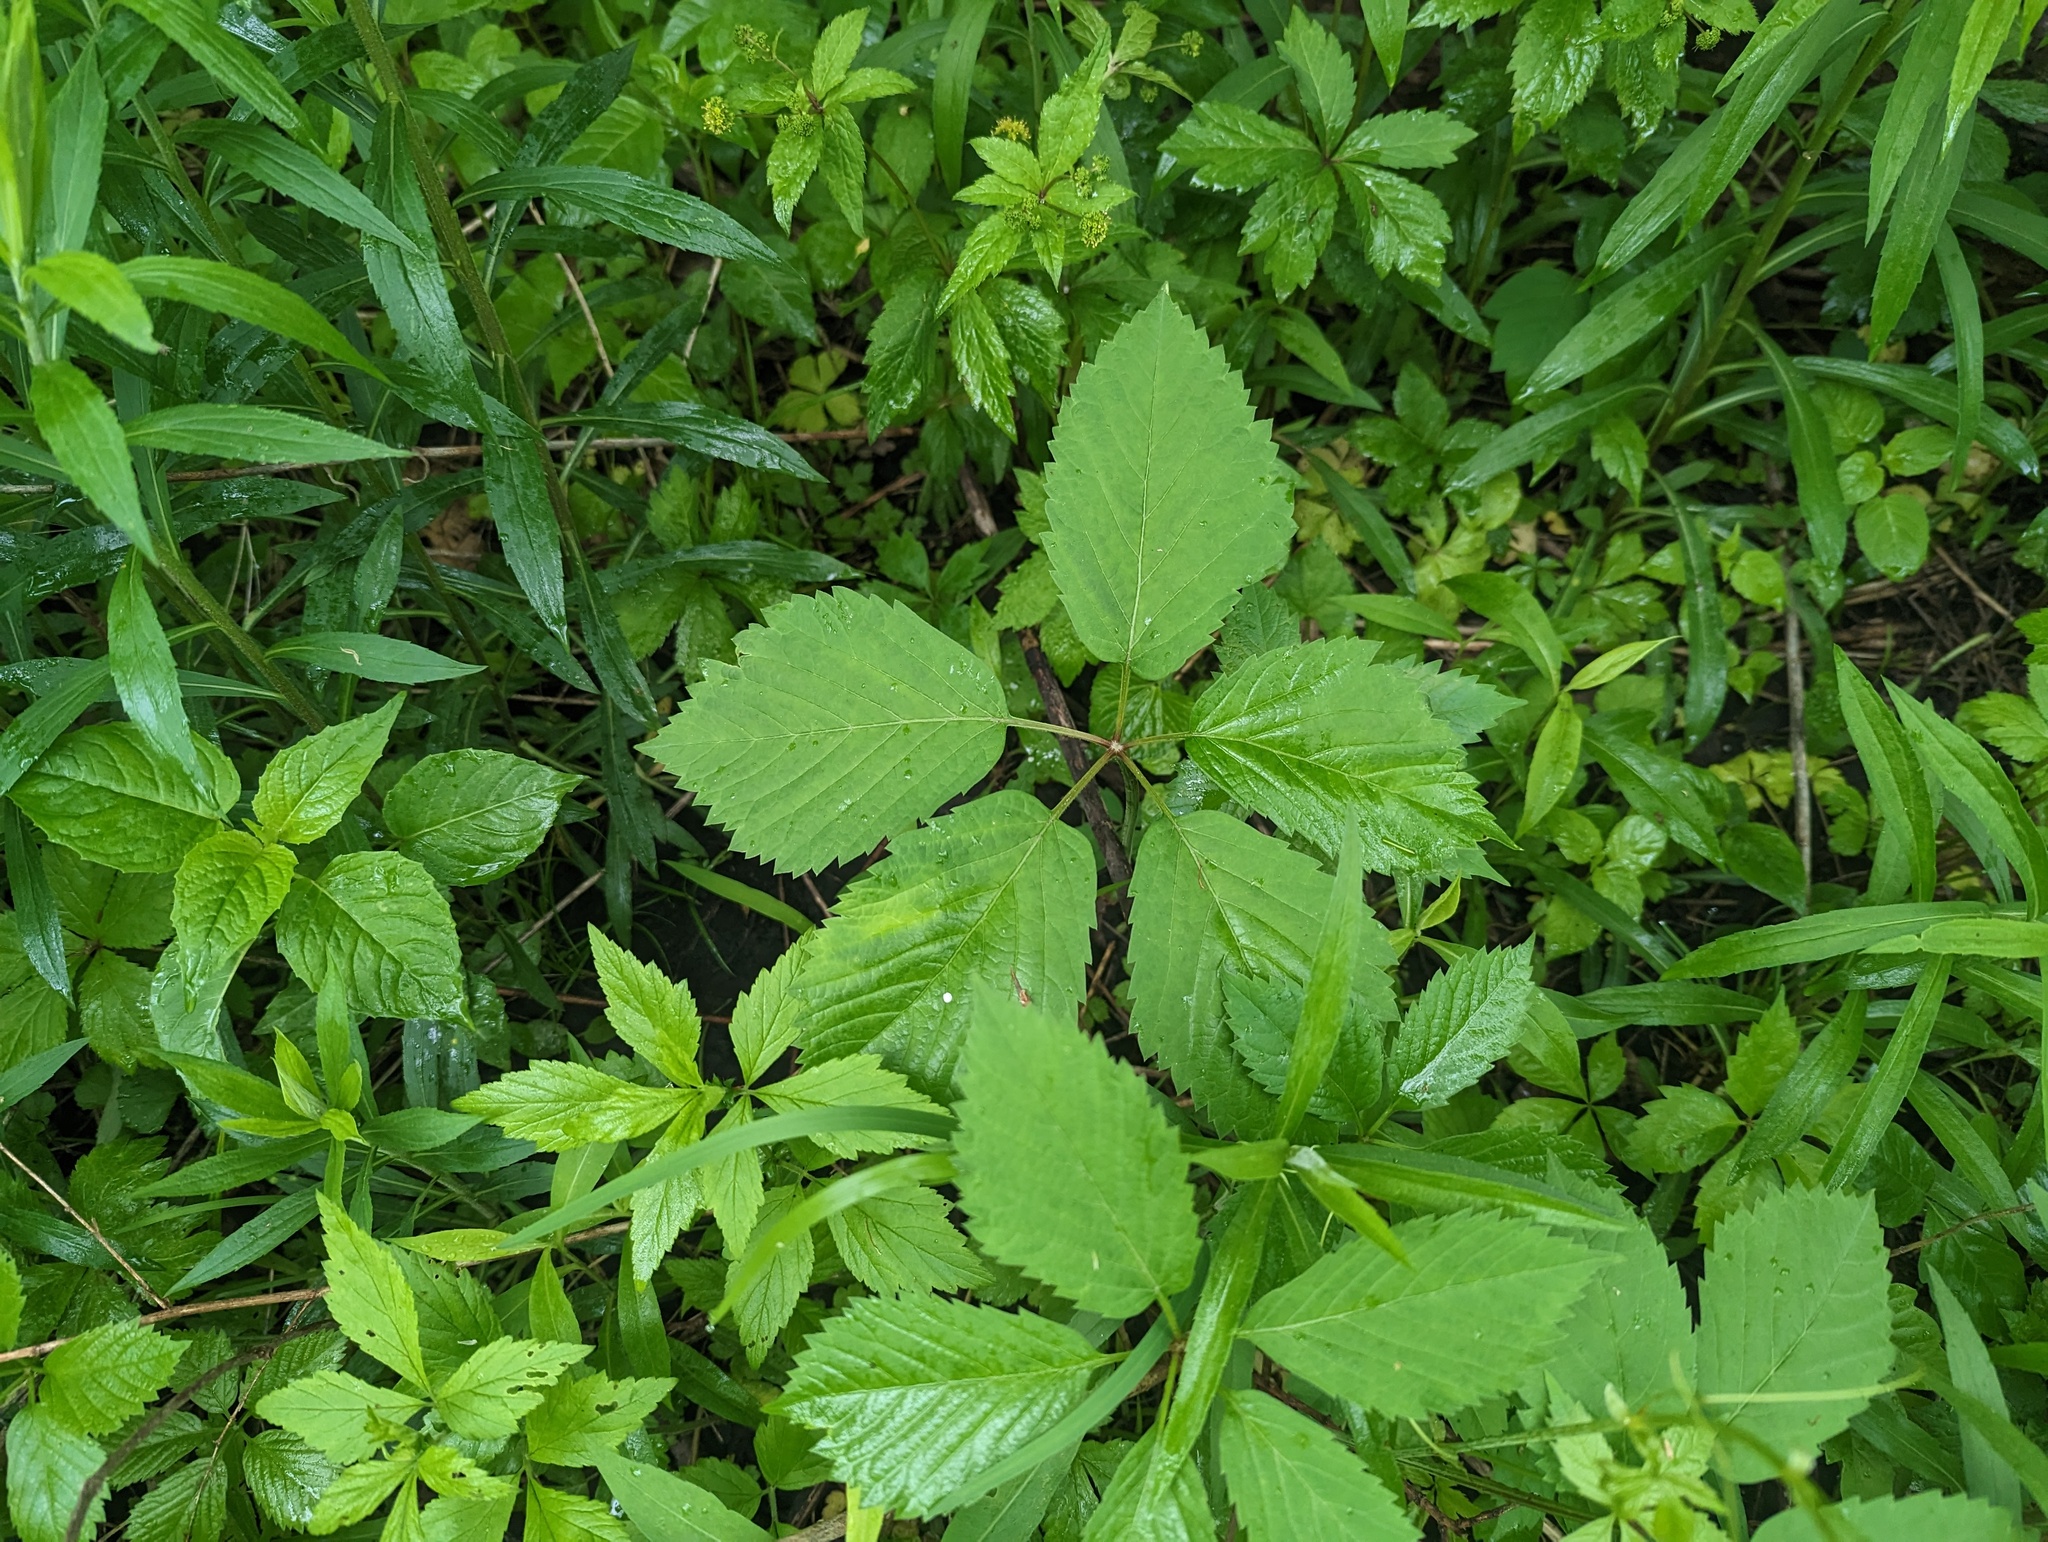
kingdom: Plantae
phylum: Tracheophyta
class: Magnoliopsida
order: Vitales
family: Vitaceae
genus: Parthenocissus
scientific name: Parthenocissus inserta
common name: False virginia-creeper
